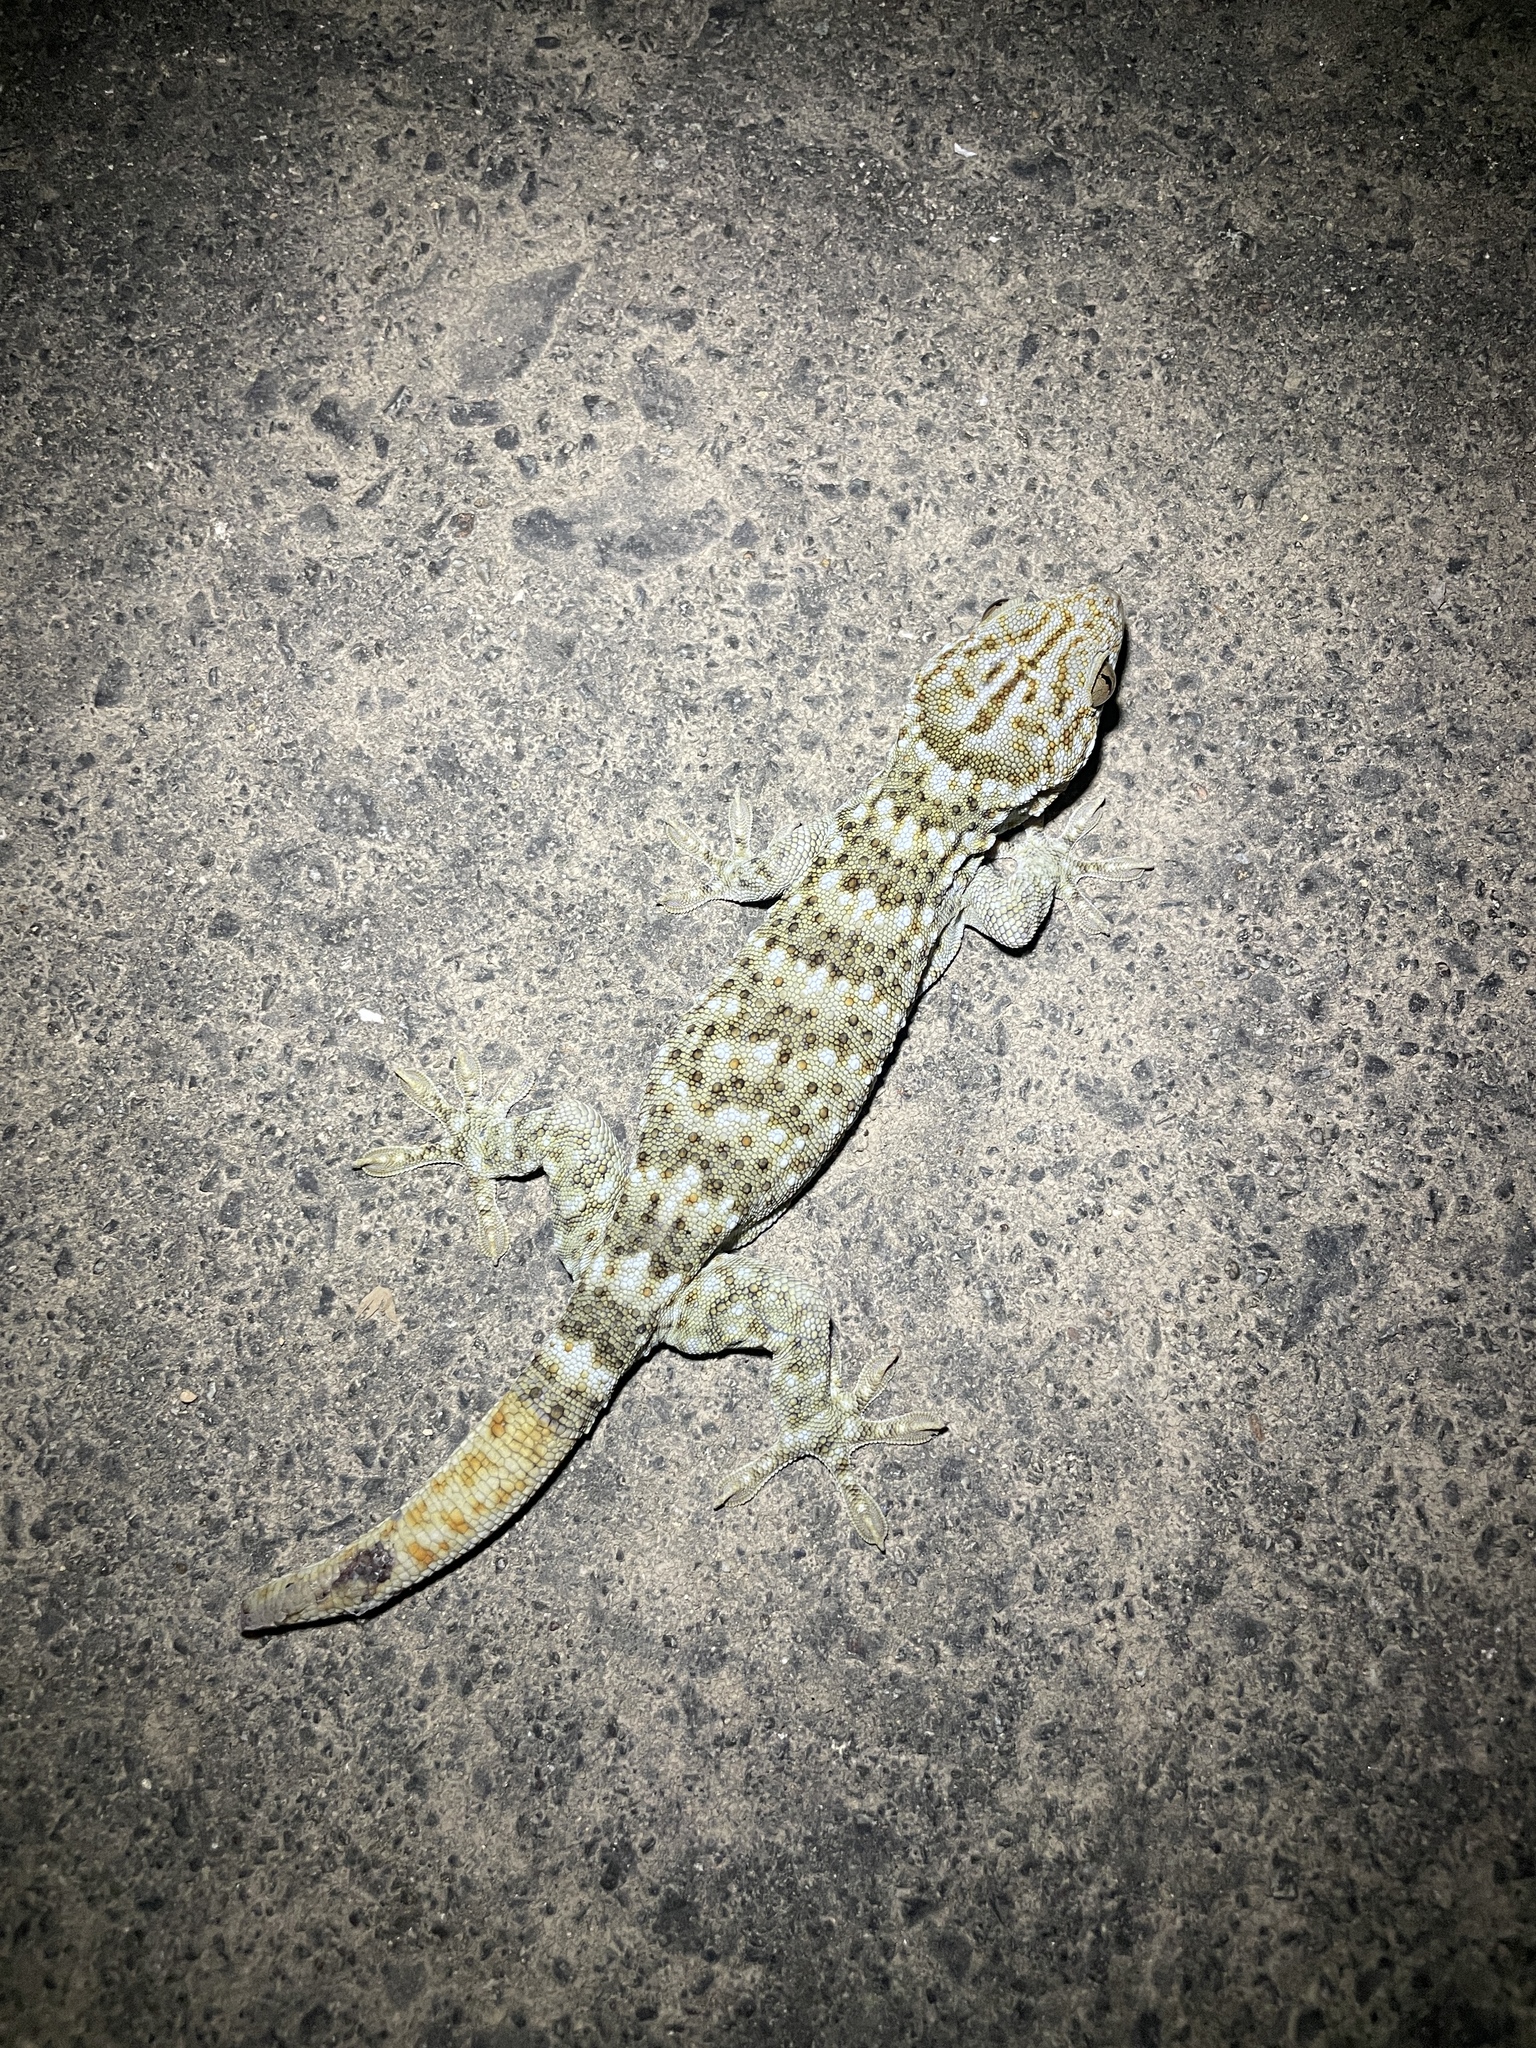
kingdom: Animalia
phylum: Chordata
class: Squamata
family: Gekkonidae
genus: Gekko
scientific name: Gekko reevesii
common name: Reeves’ tokay gecko
